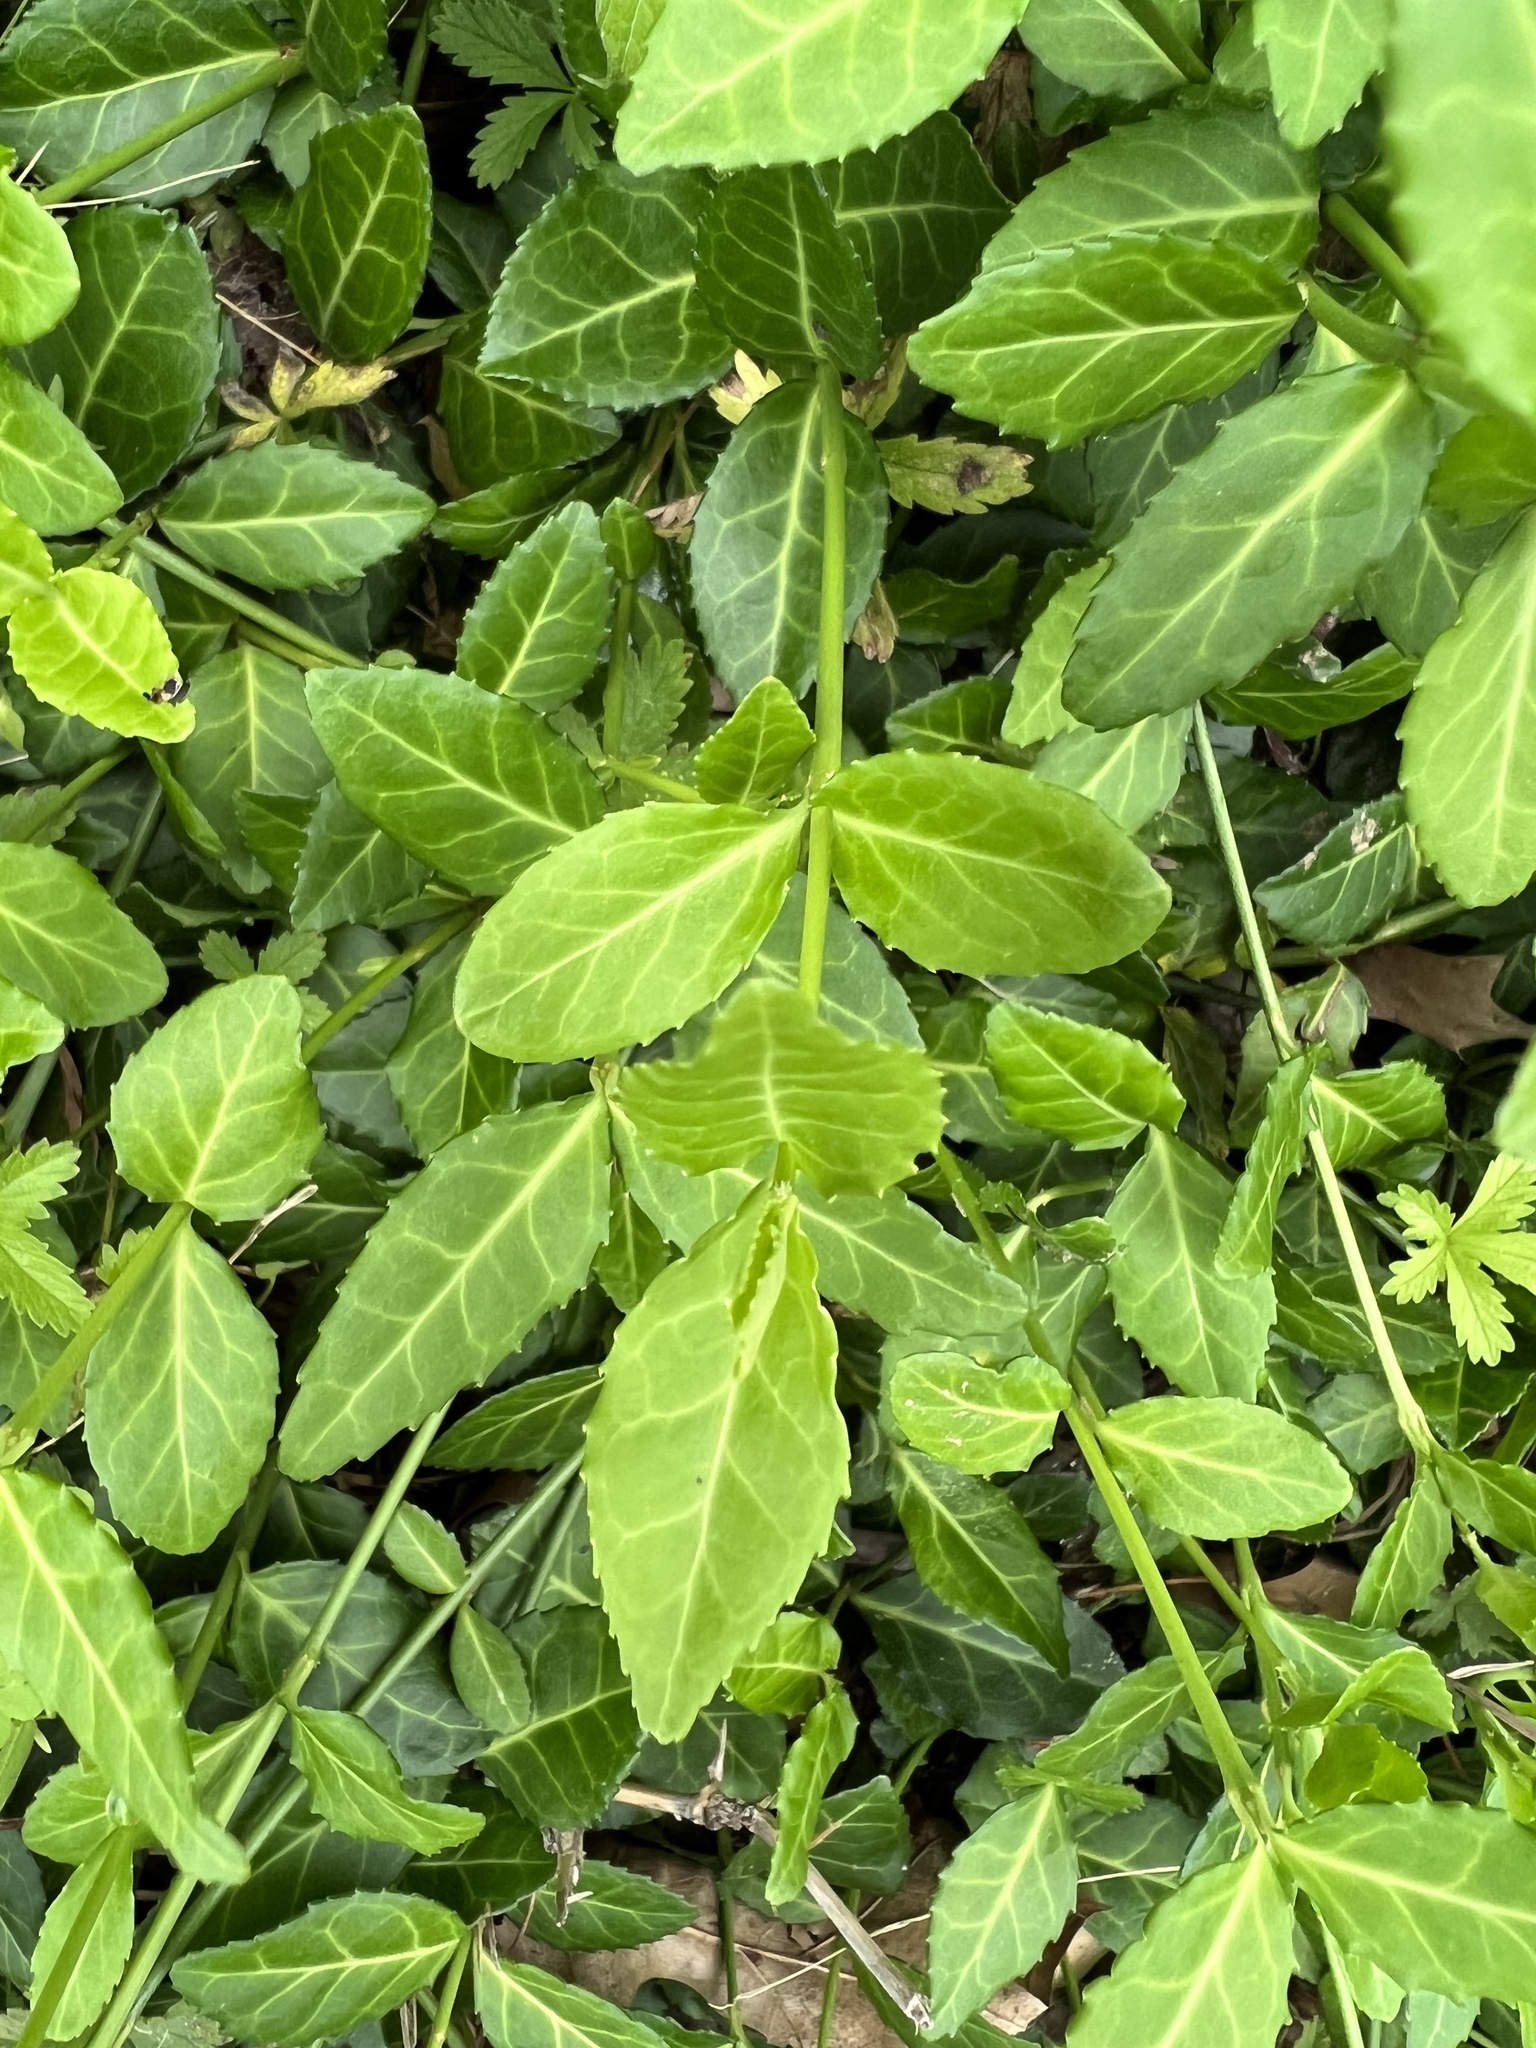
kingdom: Plantae
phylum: Tracheophyta
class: Magnoliopsida
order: Celastrales
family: Celastraceae
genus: Euonymus
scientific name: Euonymus fortunei
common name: Climbing euonymus
